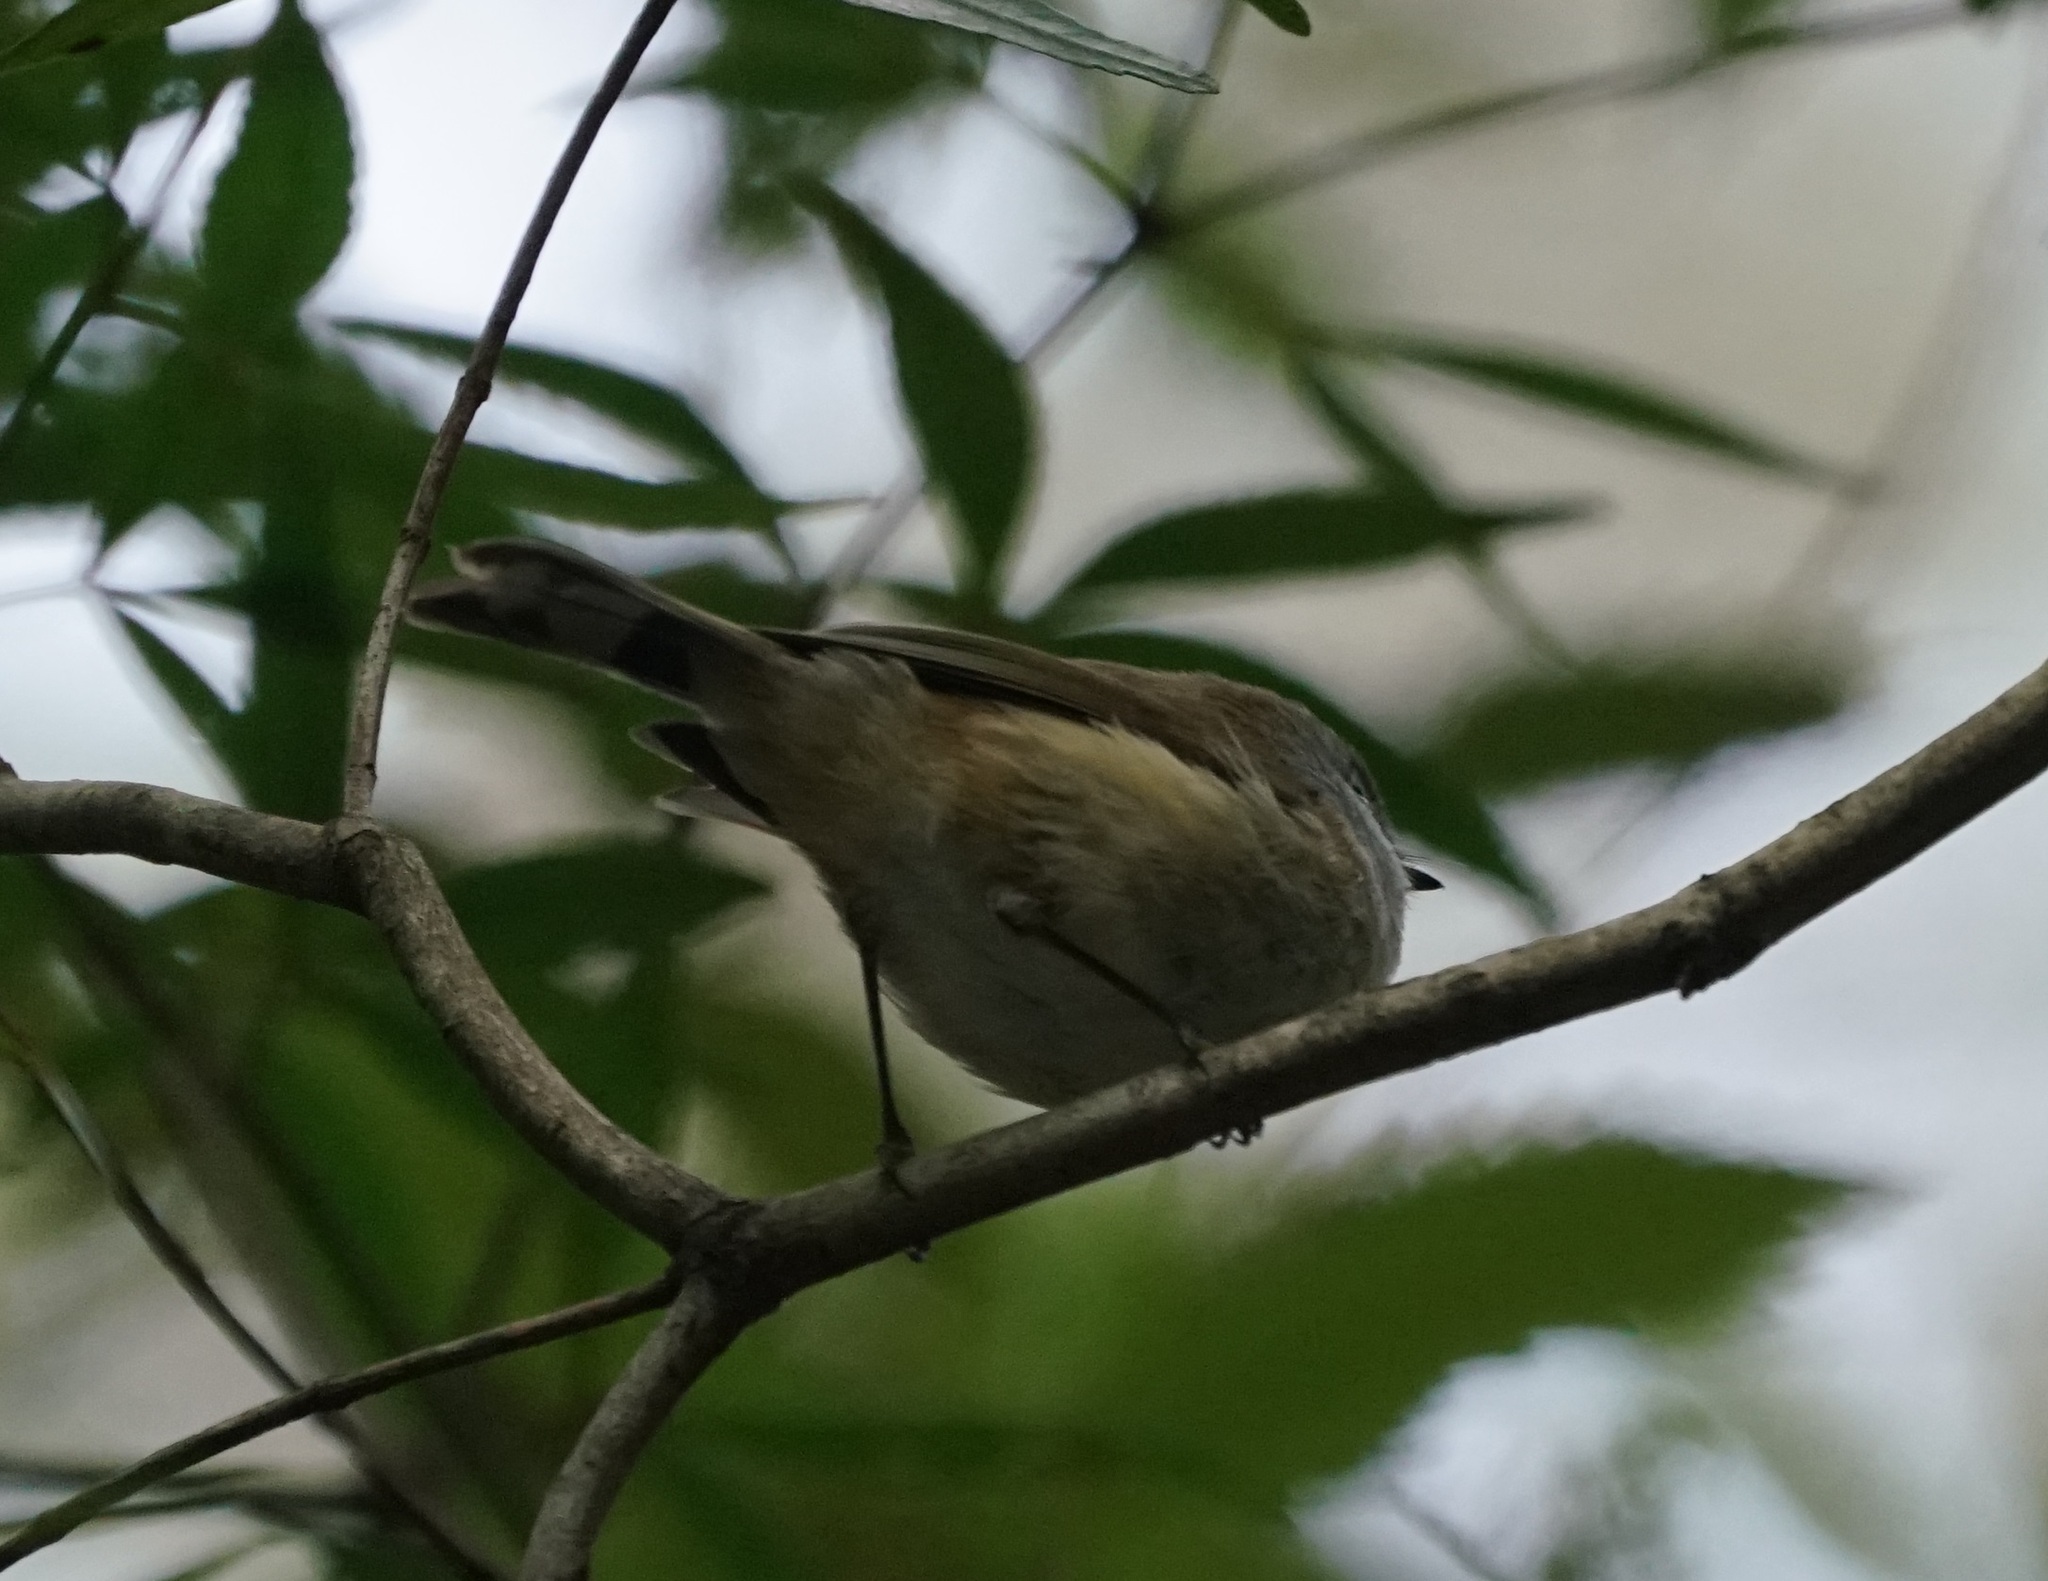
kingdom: Animalia
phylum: Chordata
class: Aves
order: Passeriformes
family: Acanthizidae
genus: Gerygone
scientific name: Gerygone mouki
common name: Brown gerygone
